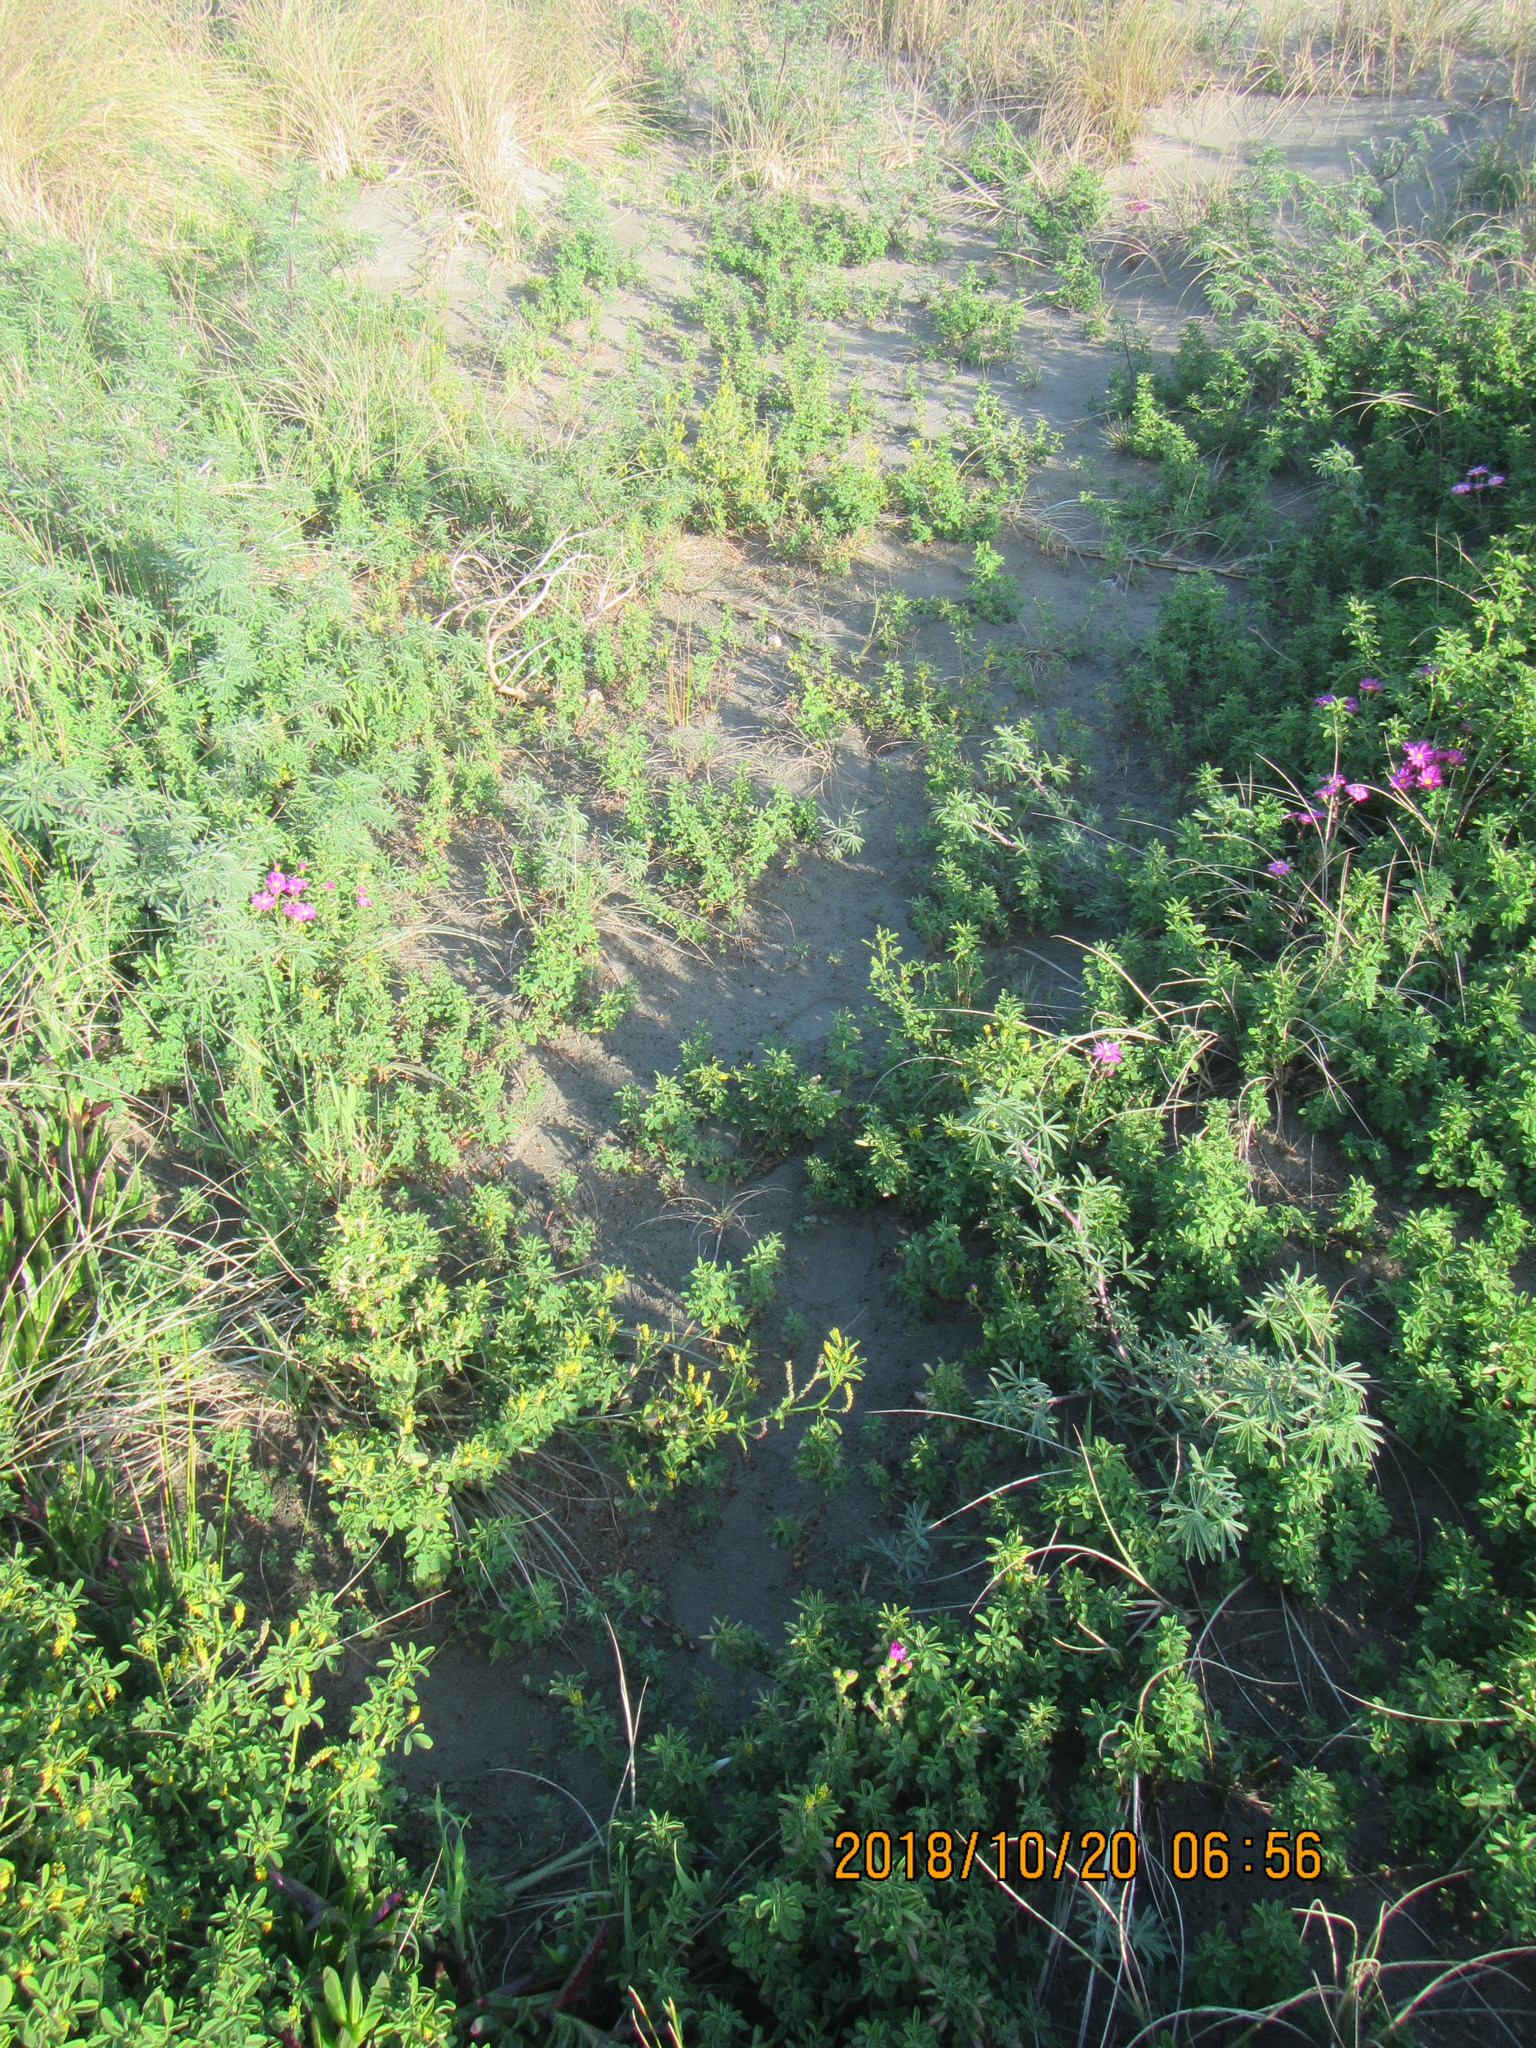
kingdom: Plantae
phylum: Tracheophyta
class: Magnoliopsida
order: Fabales
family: Fabaceae
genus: Melilotus
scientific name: Melilotus indicus
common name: Small melilot
